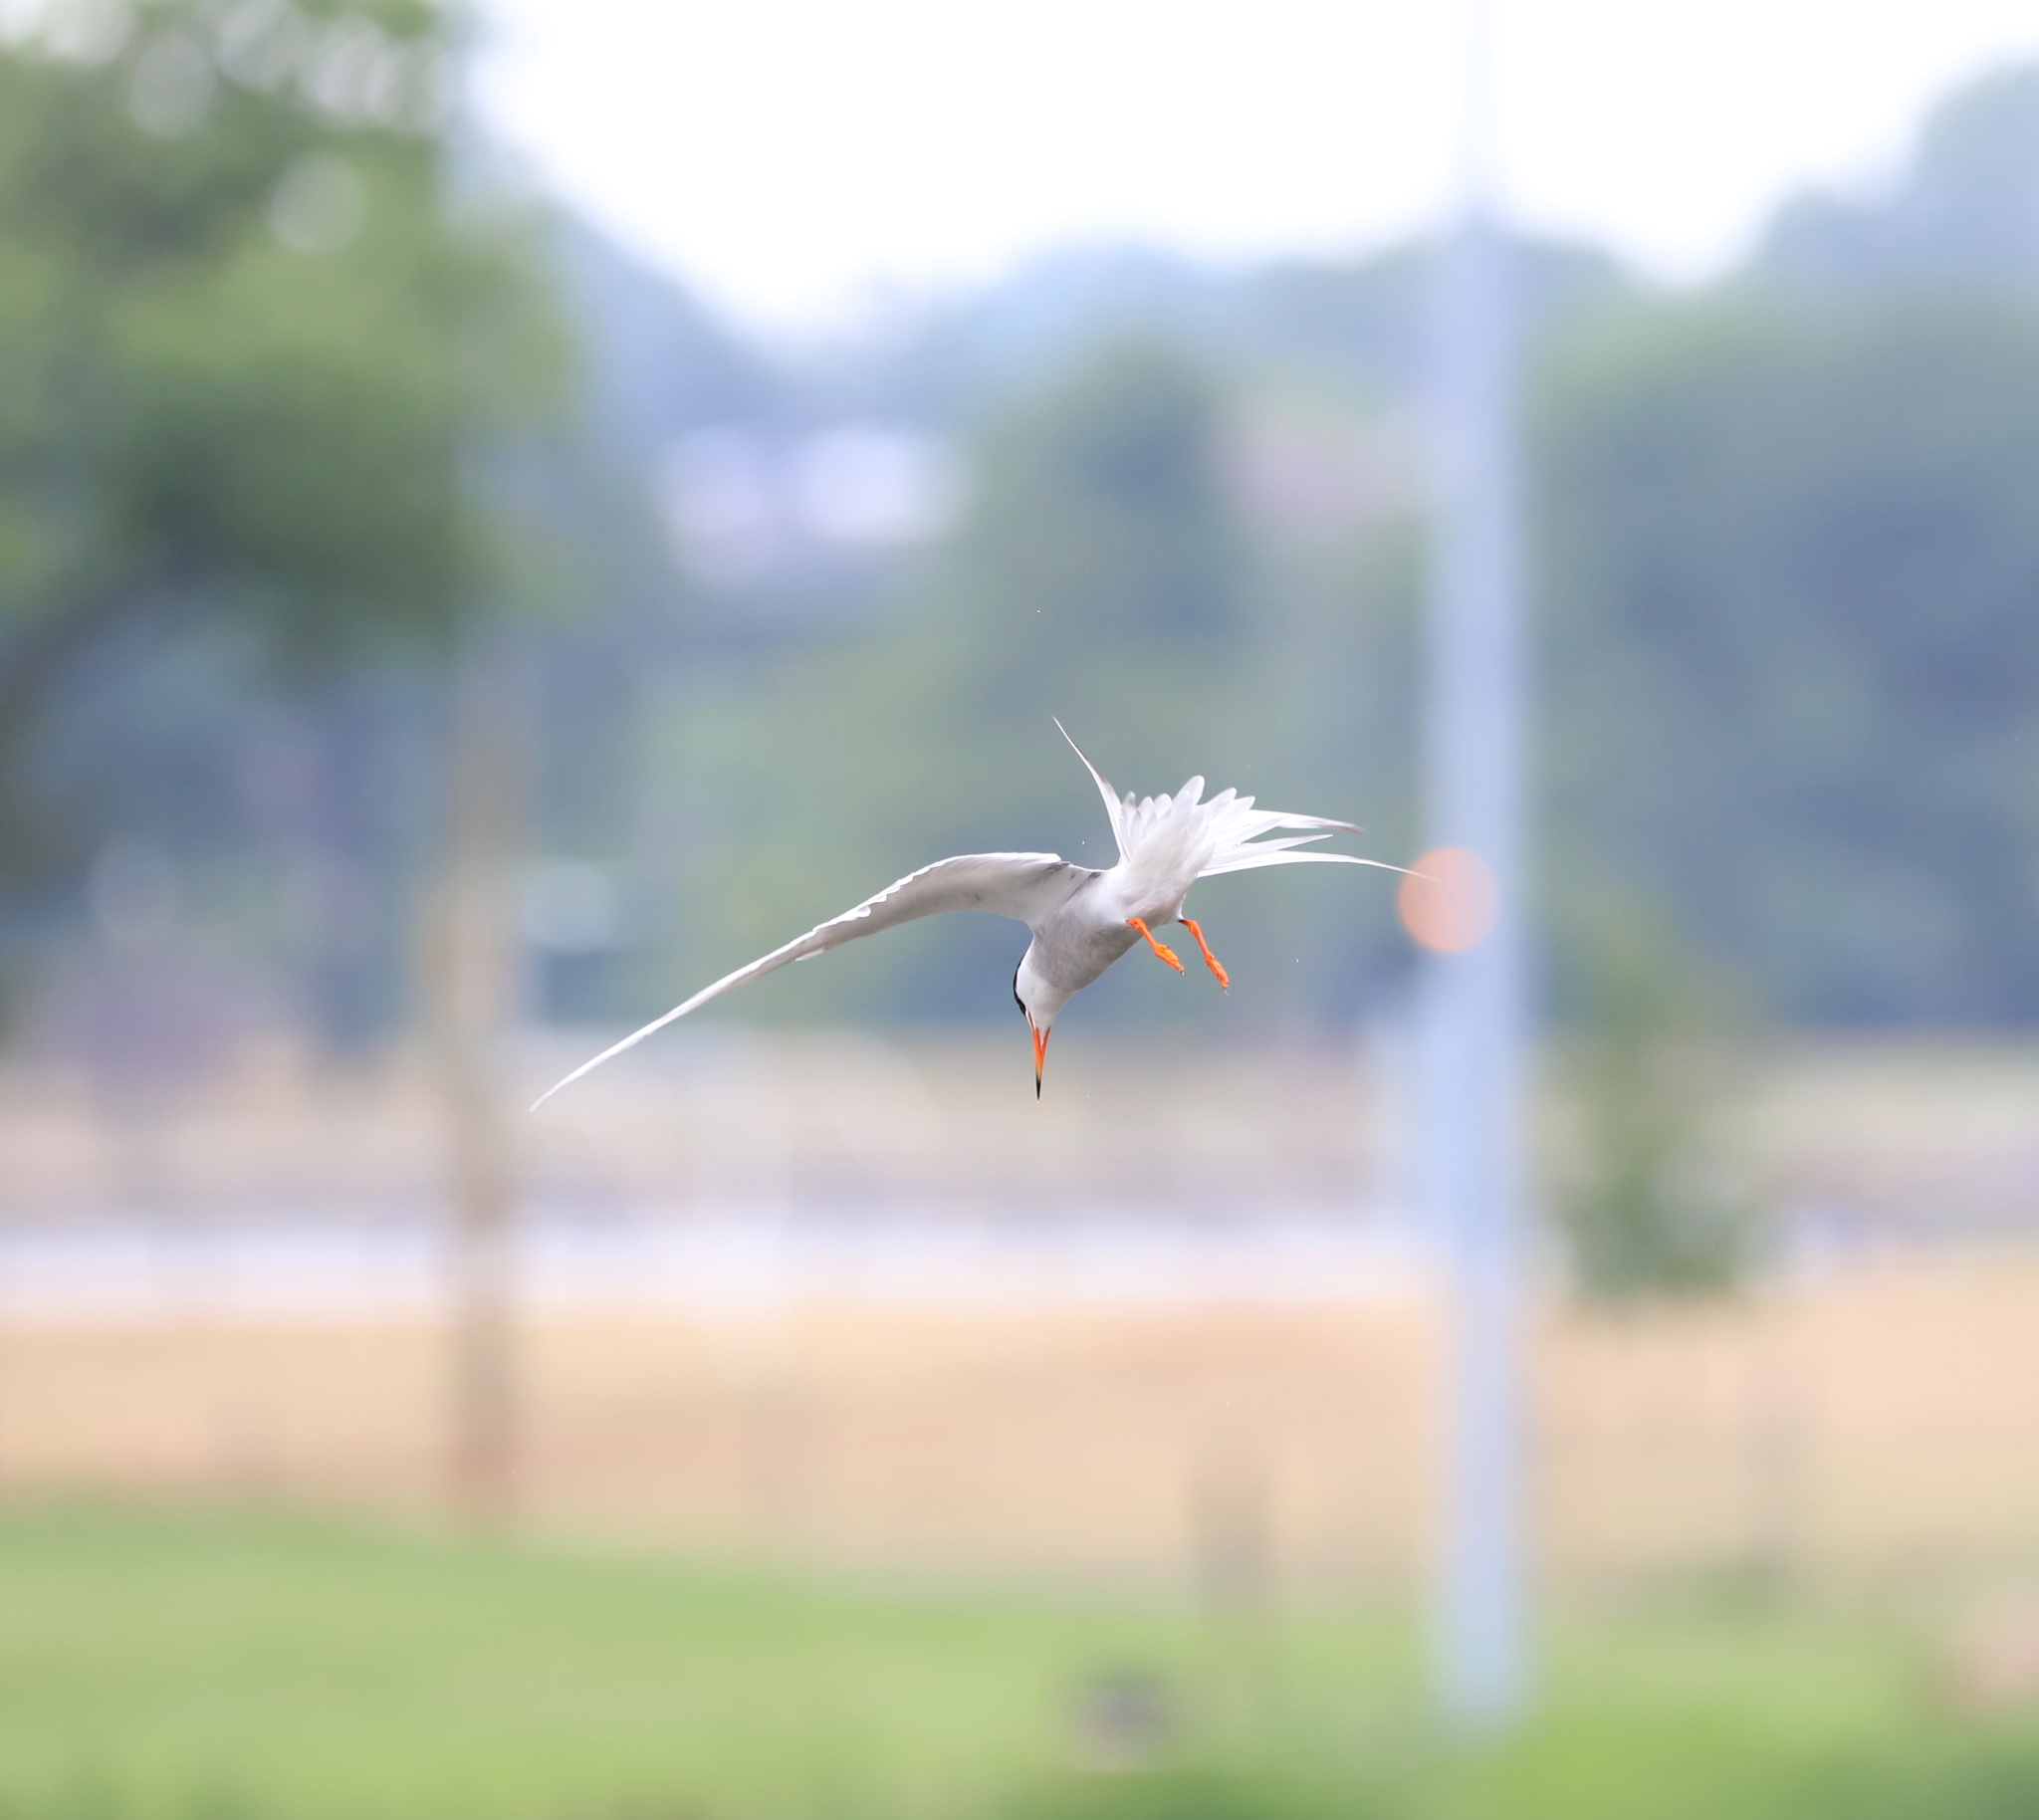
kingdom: Animalia
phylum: Chordata
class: Aves
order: Charadriiformes
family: Laridae
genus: Sterna
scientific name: Sterna forsteri
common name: Forster's tern
